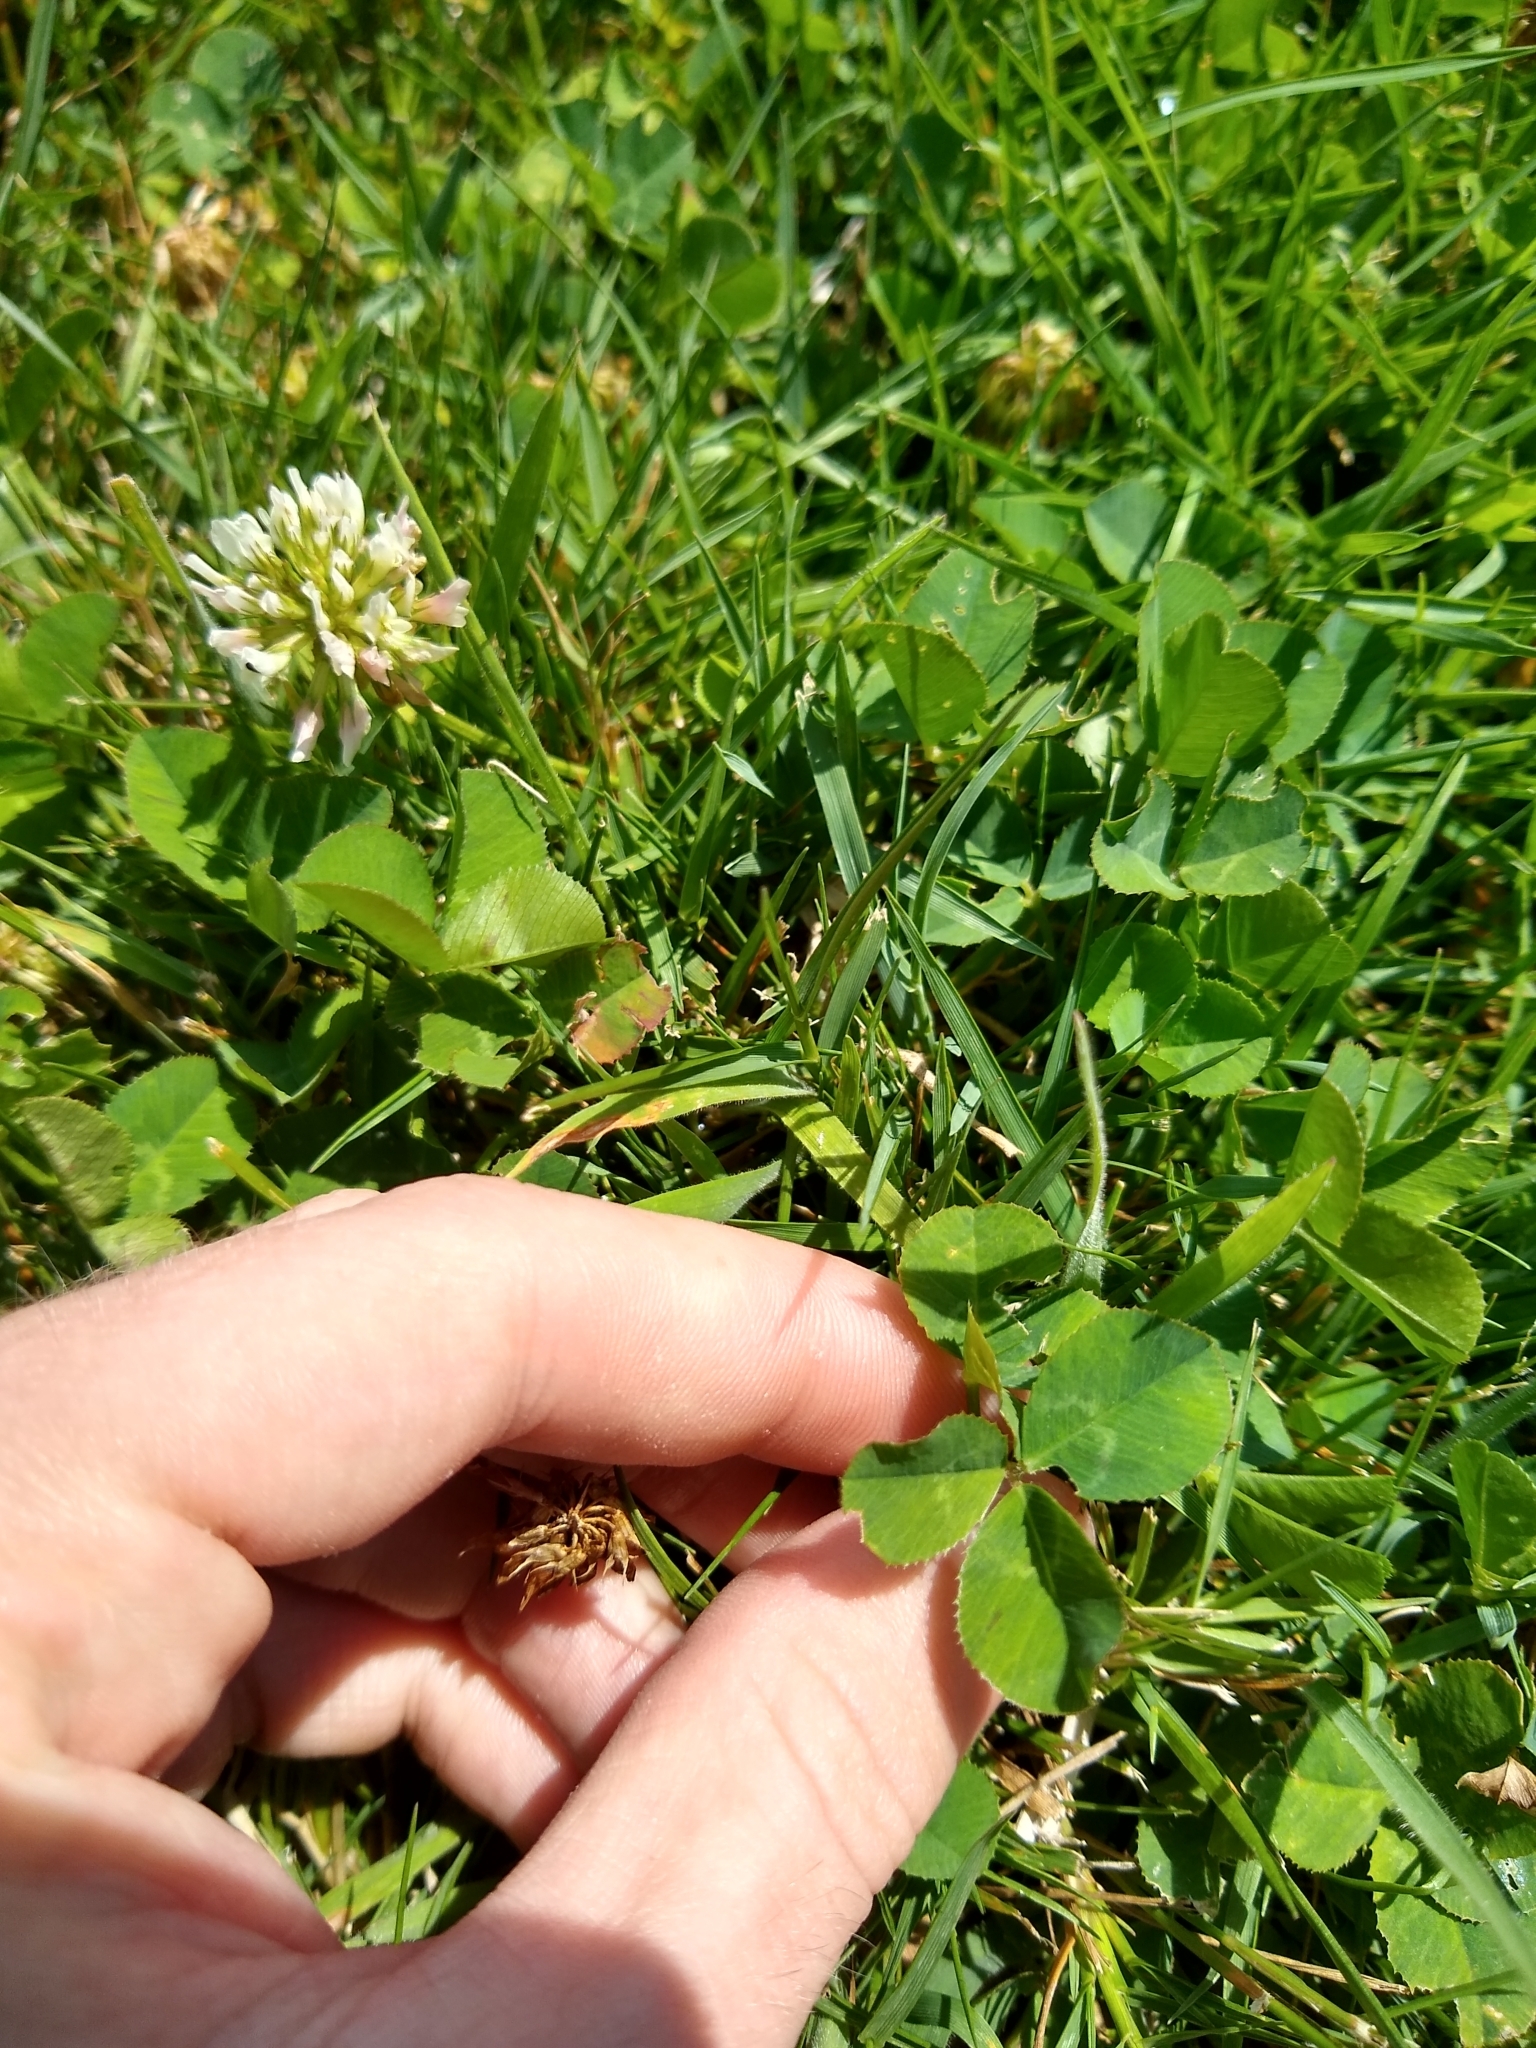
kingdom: Plantae
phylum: Tracheophyta
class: Magnoliopsida
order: Fabales
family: Fabaceae
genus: Trifolium
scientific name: Trifolium repens
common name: White clover
